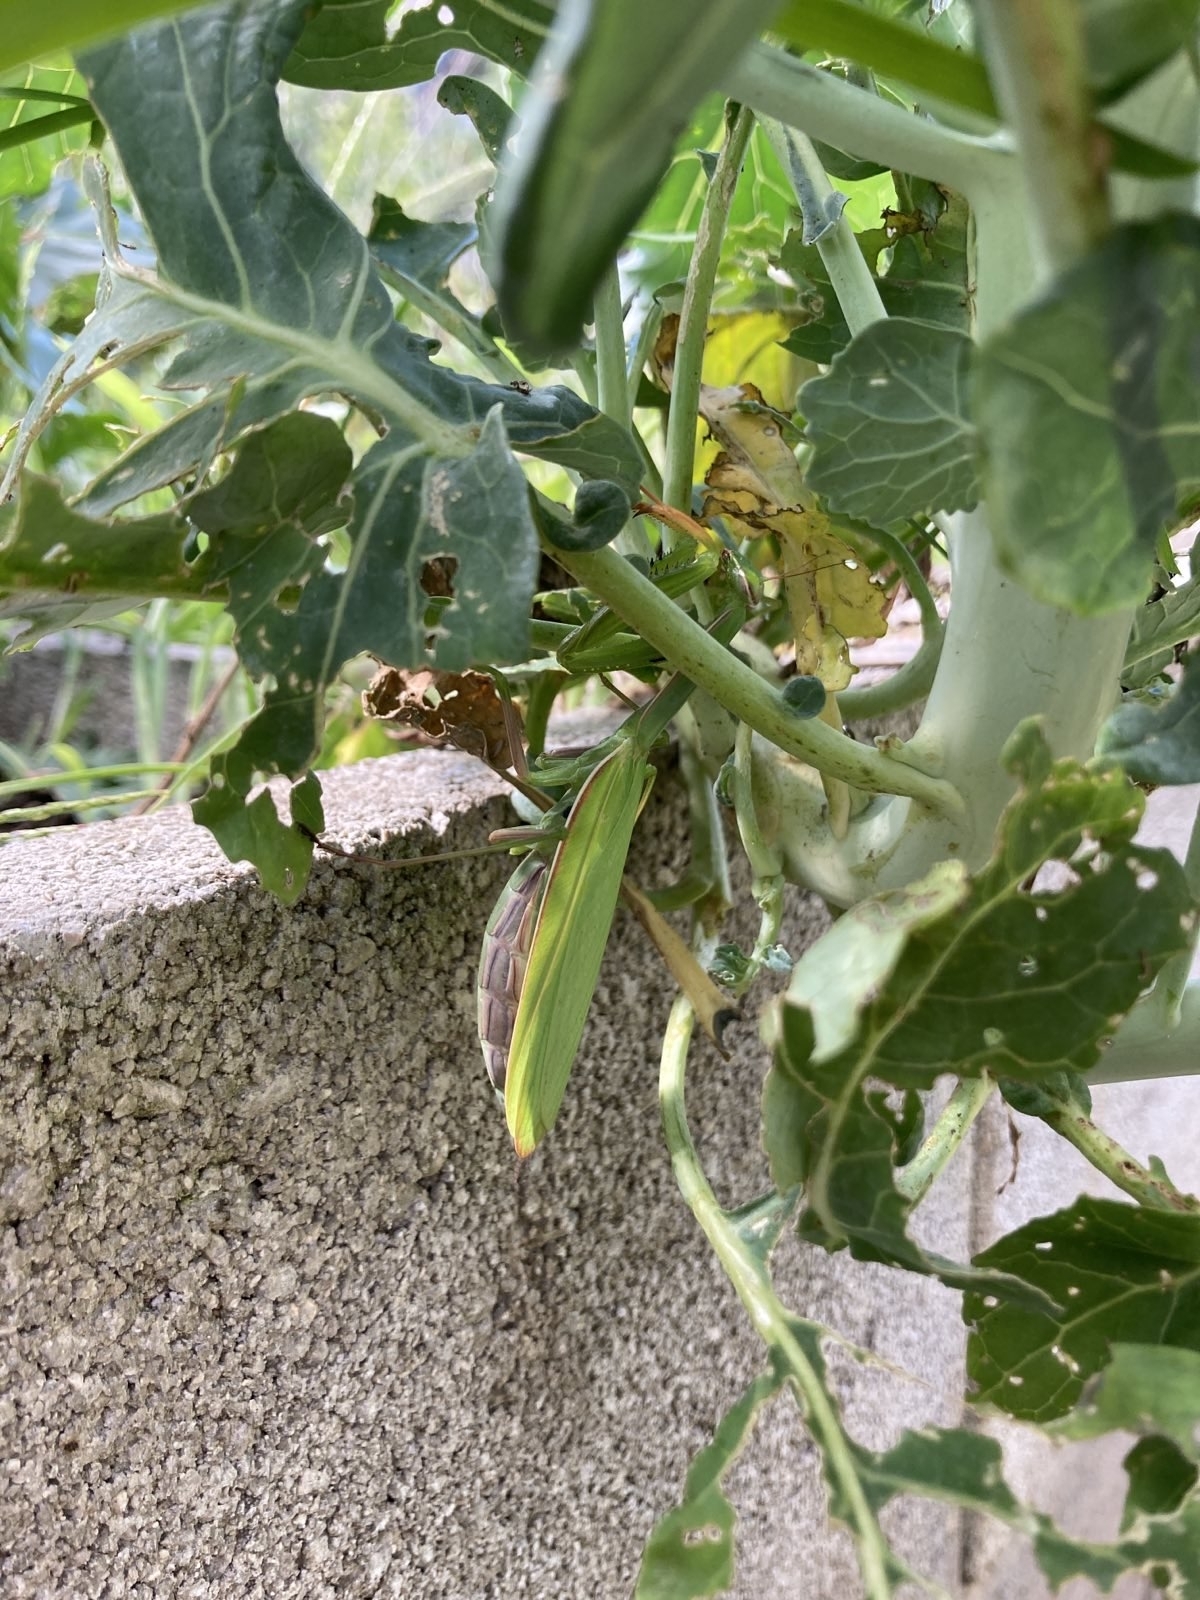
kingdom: Animalia
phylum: Arthropoda
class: Insecta
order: Mantodea
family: Mantidae
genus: Mantis
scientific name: Mantis religiosa
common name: Praying mantis
